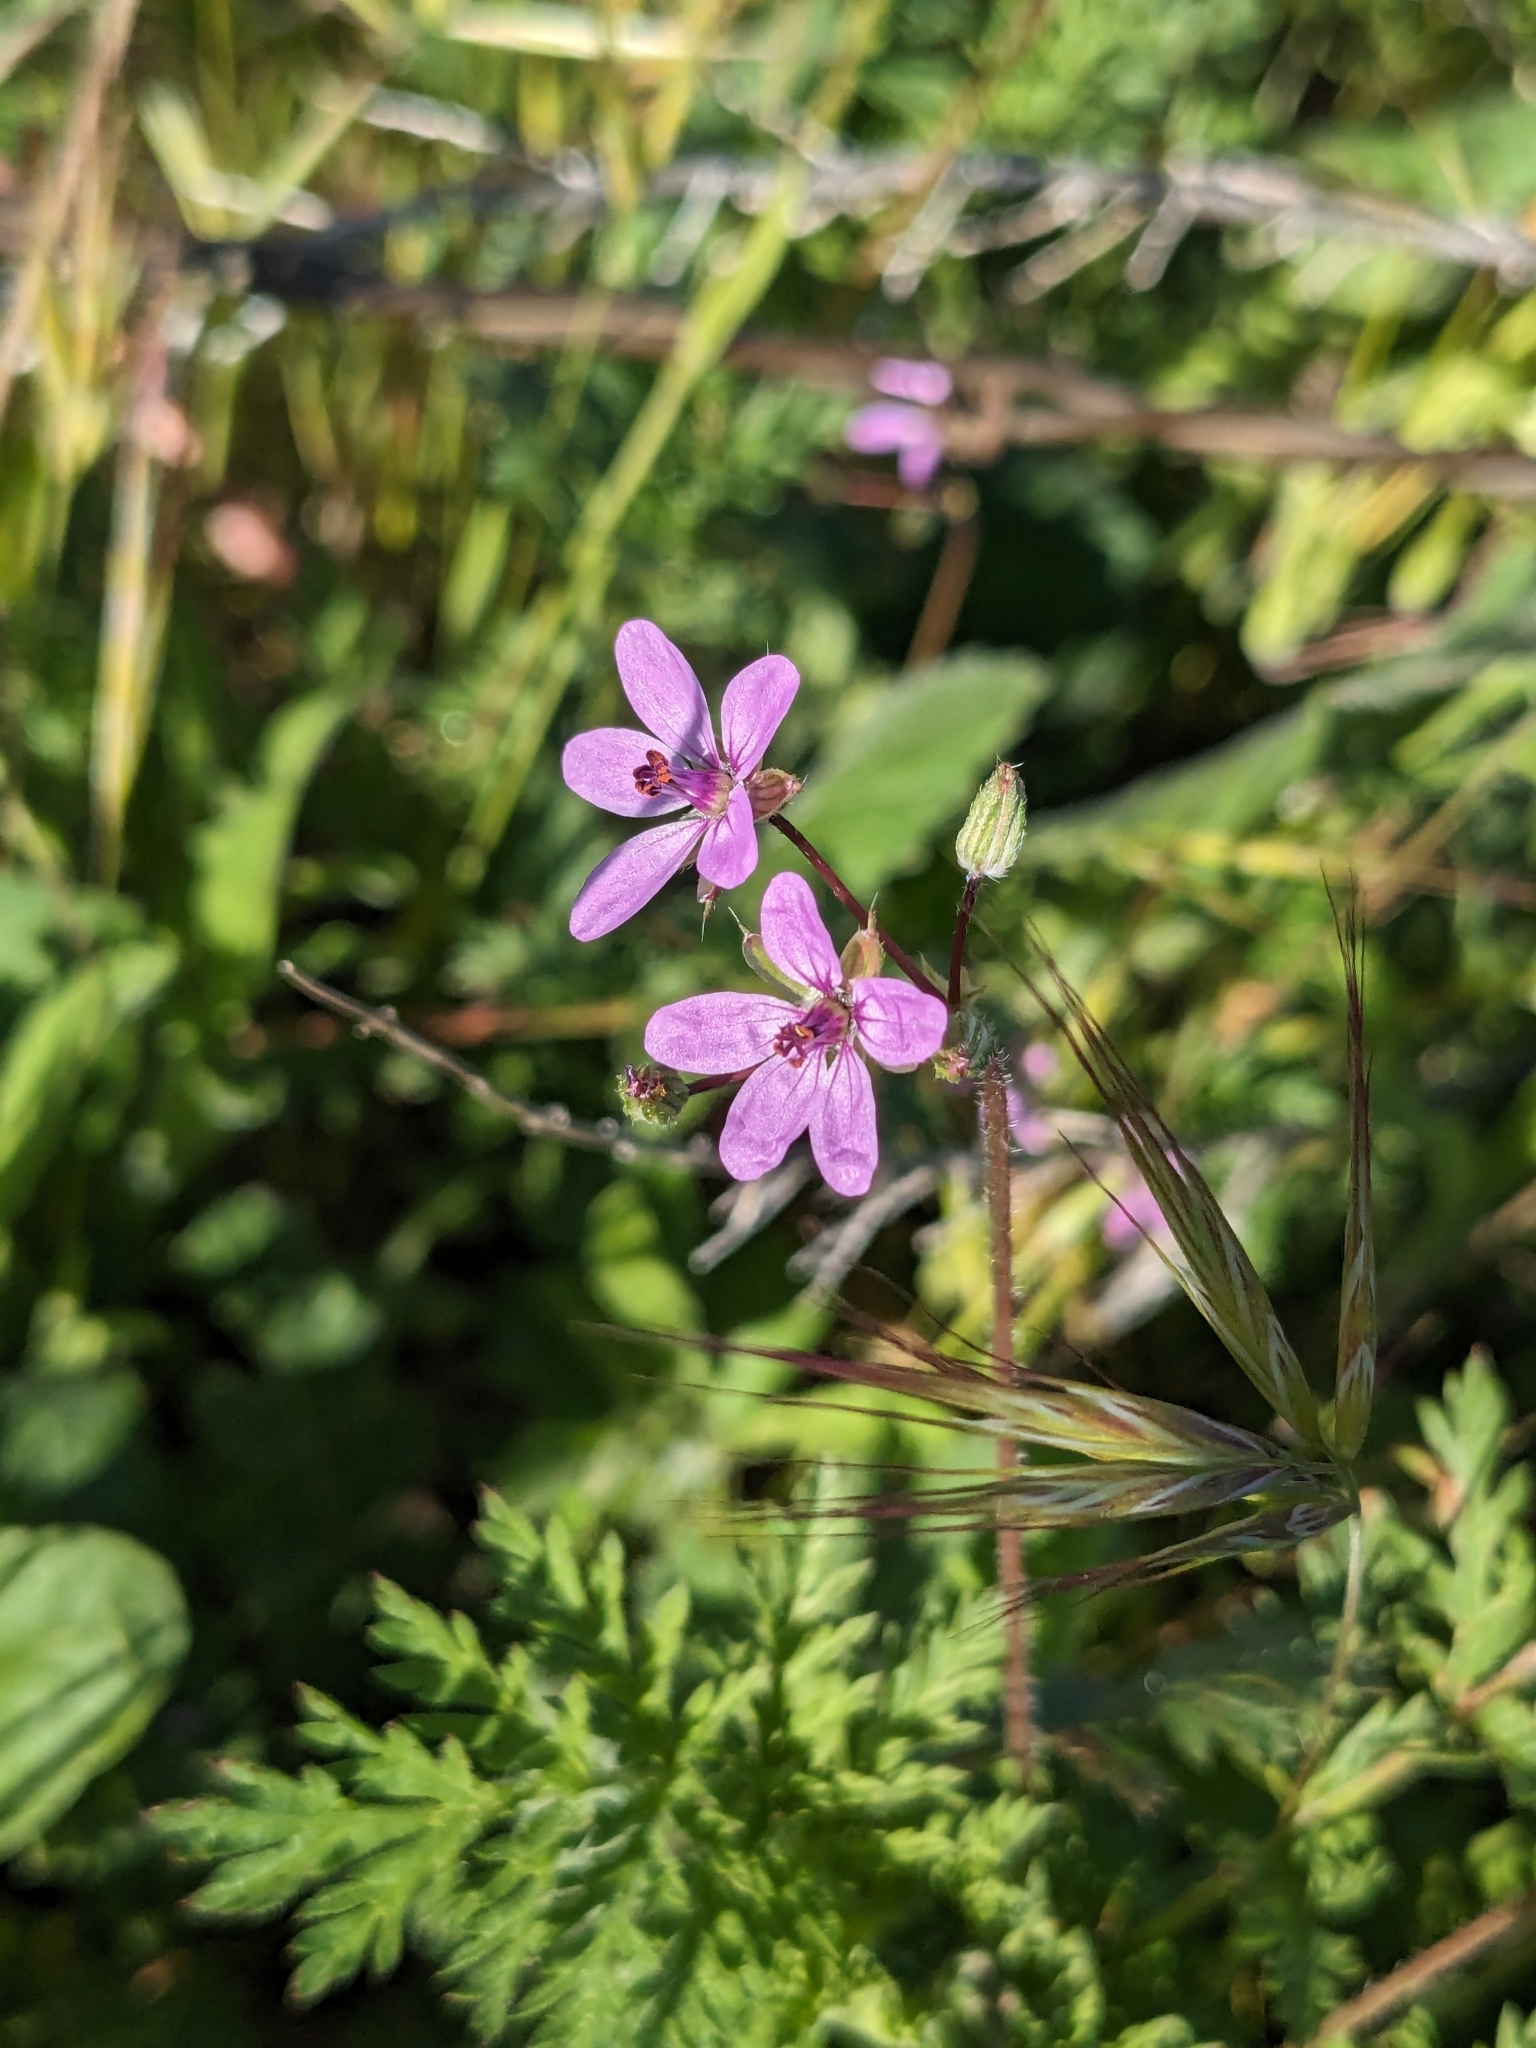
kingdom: Plantae
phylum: Tracheophyta
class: Magnoliopsida
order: Geraniales
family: Geraniaceae
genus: Erodium
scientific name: Erodium cicutarium
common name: Common stork's-bill
